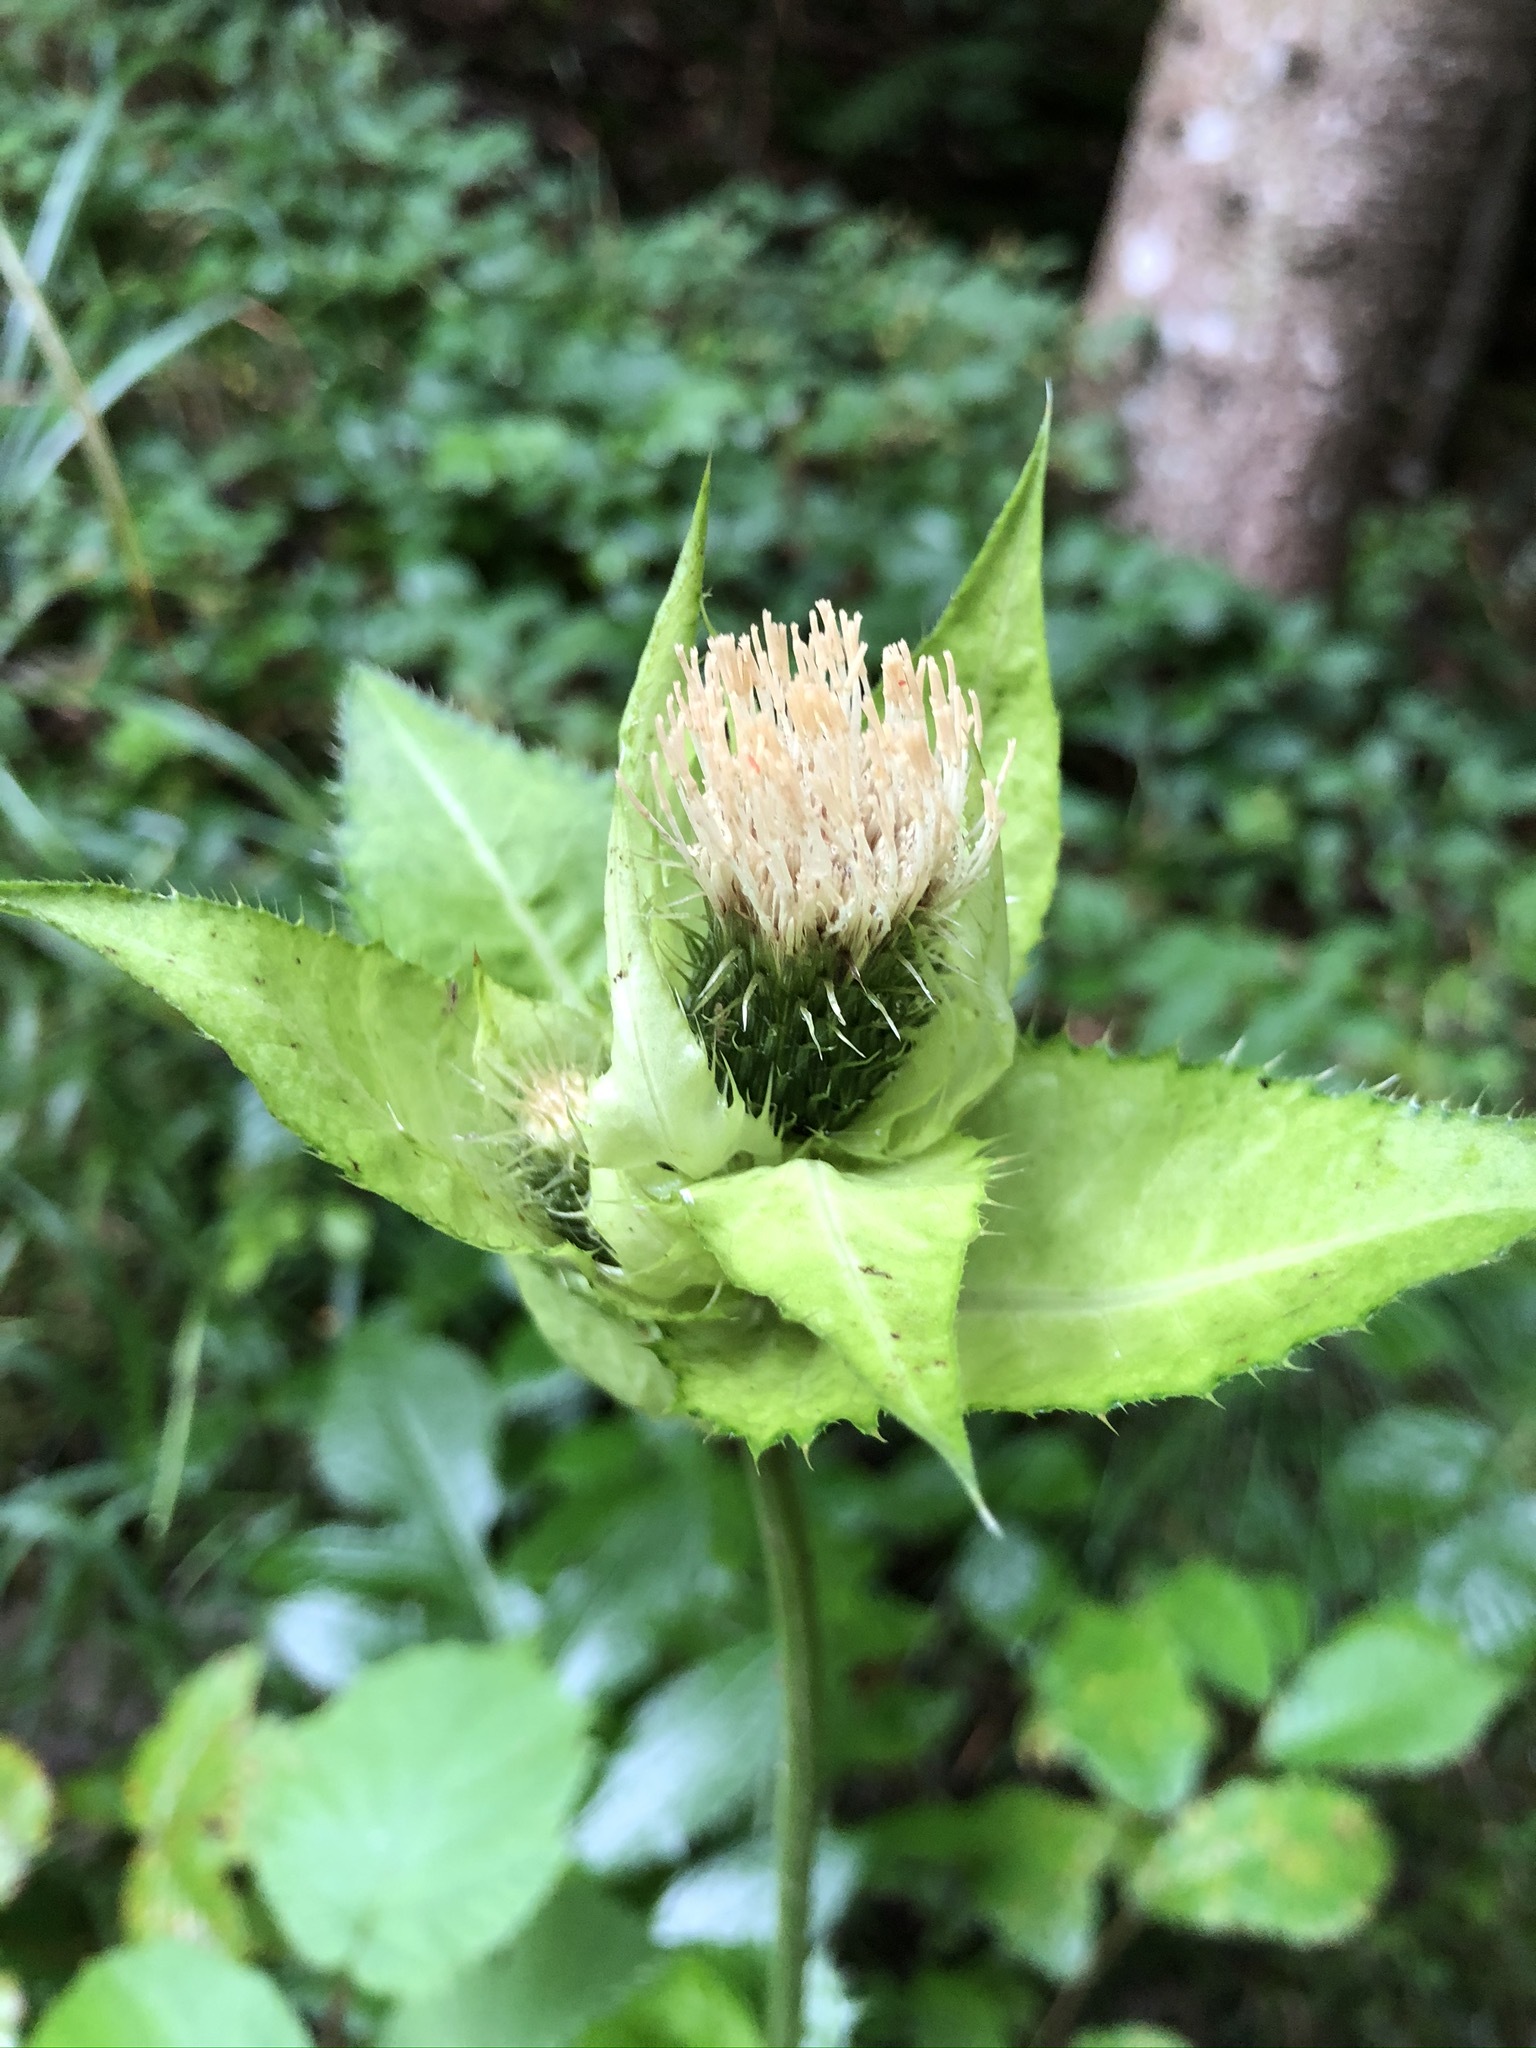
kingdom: Plantae
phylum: Tracheophyta
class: Magnoliopsida
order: Asterales
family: Asteraceae
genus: Cirsium
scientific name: Cirsium oleraceum
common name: Cabbage thistle
